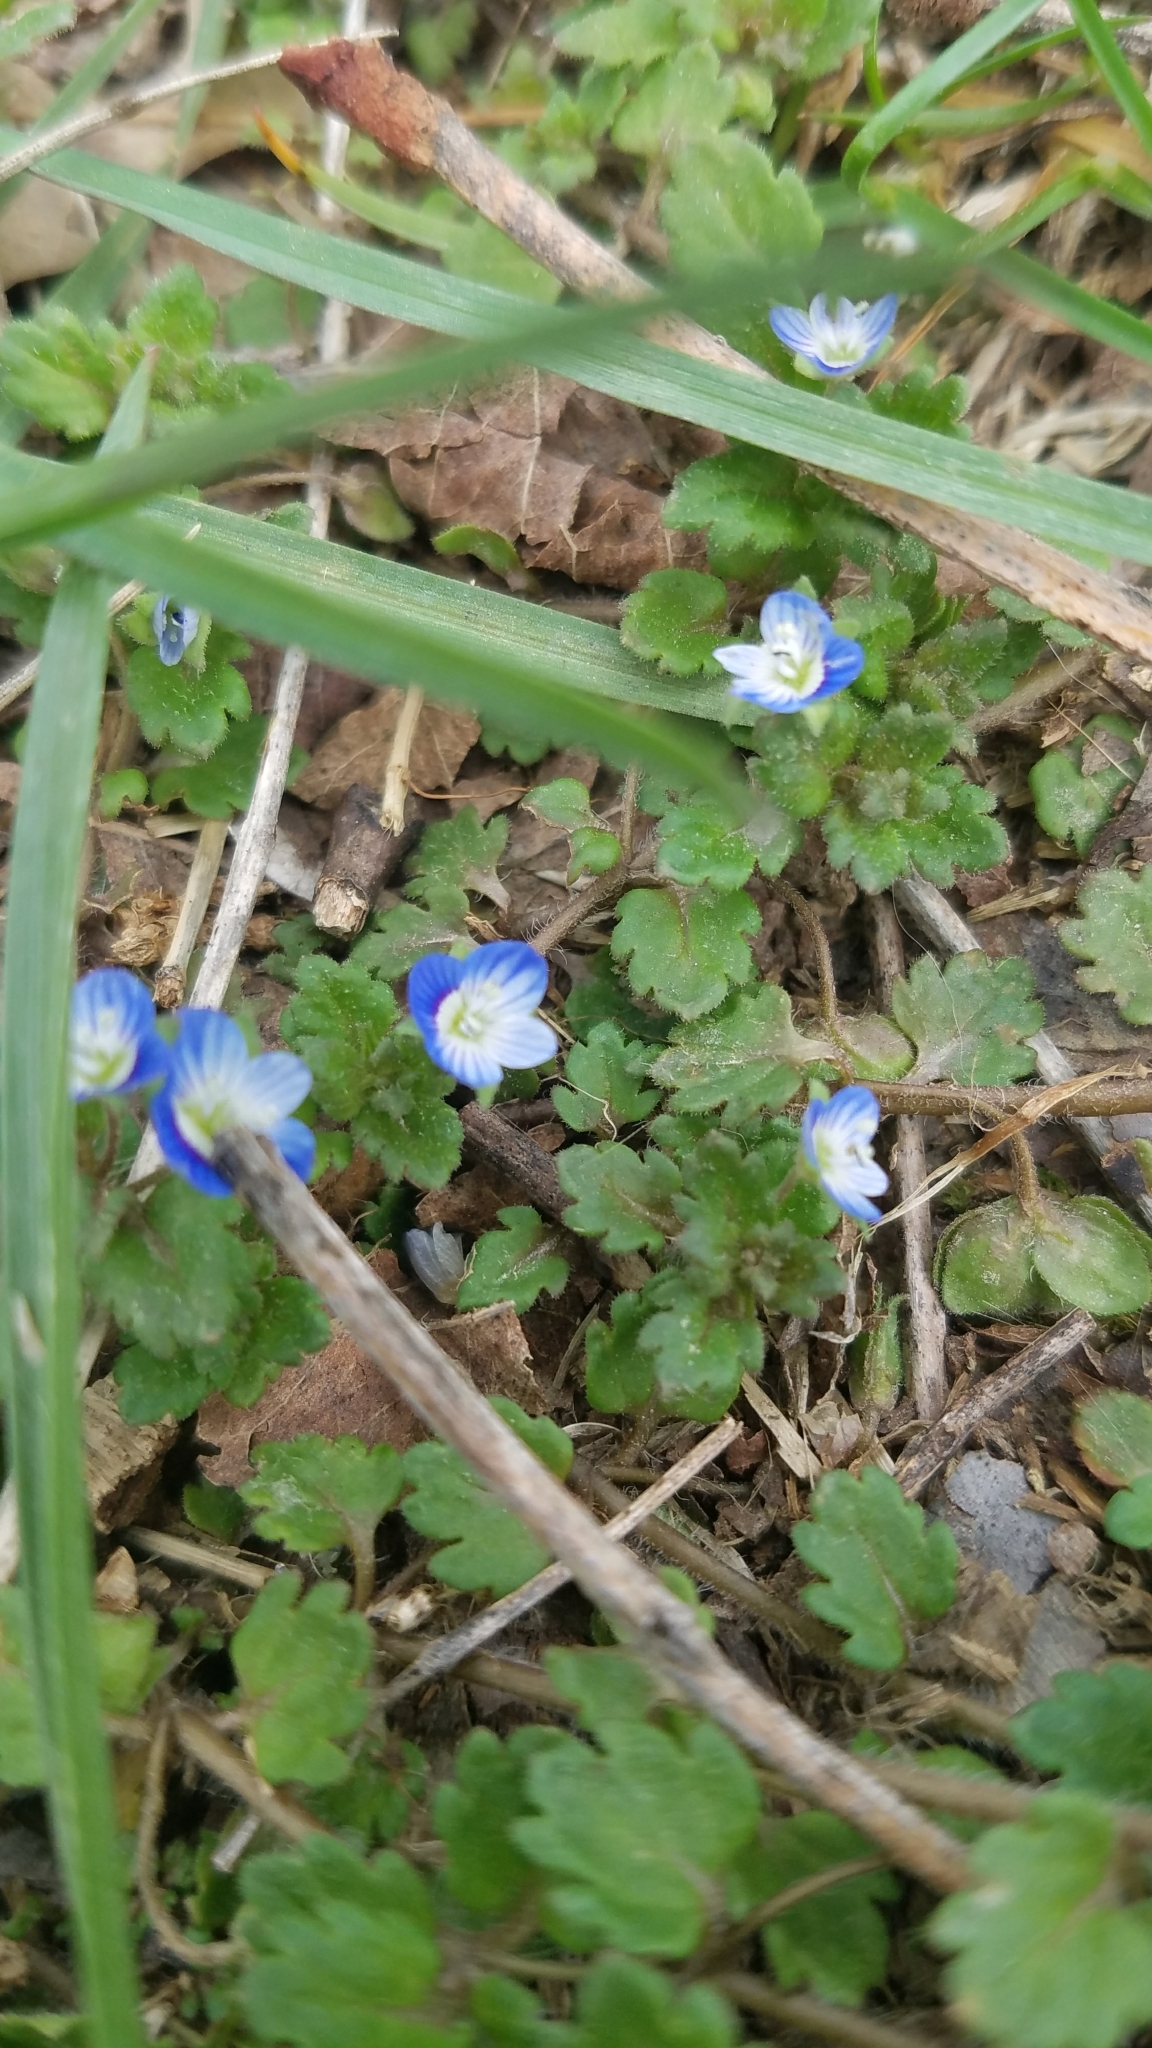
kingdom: Plantae
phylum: Tracheophyta
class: Magnoliopsida
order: Lamiales
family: Plantaginaceae
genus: Veronica
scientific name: Veronica polita
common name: Grey field-speedwell
